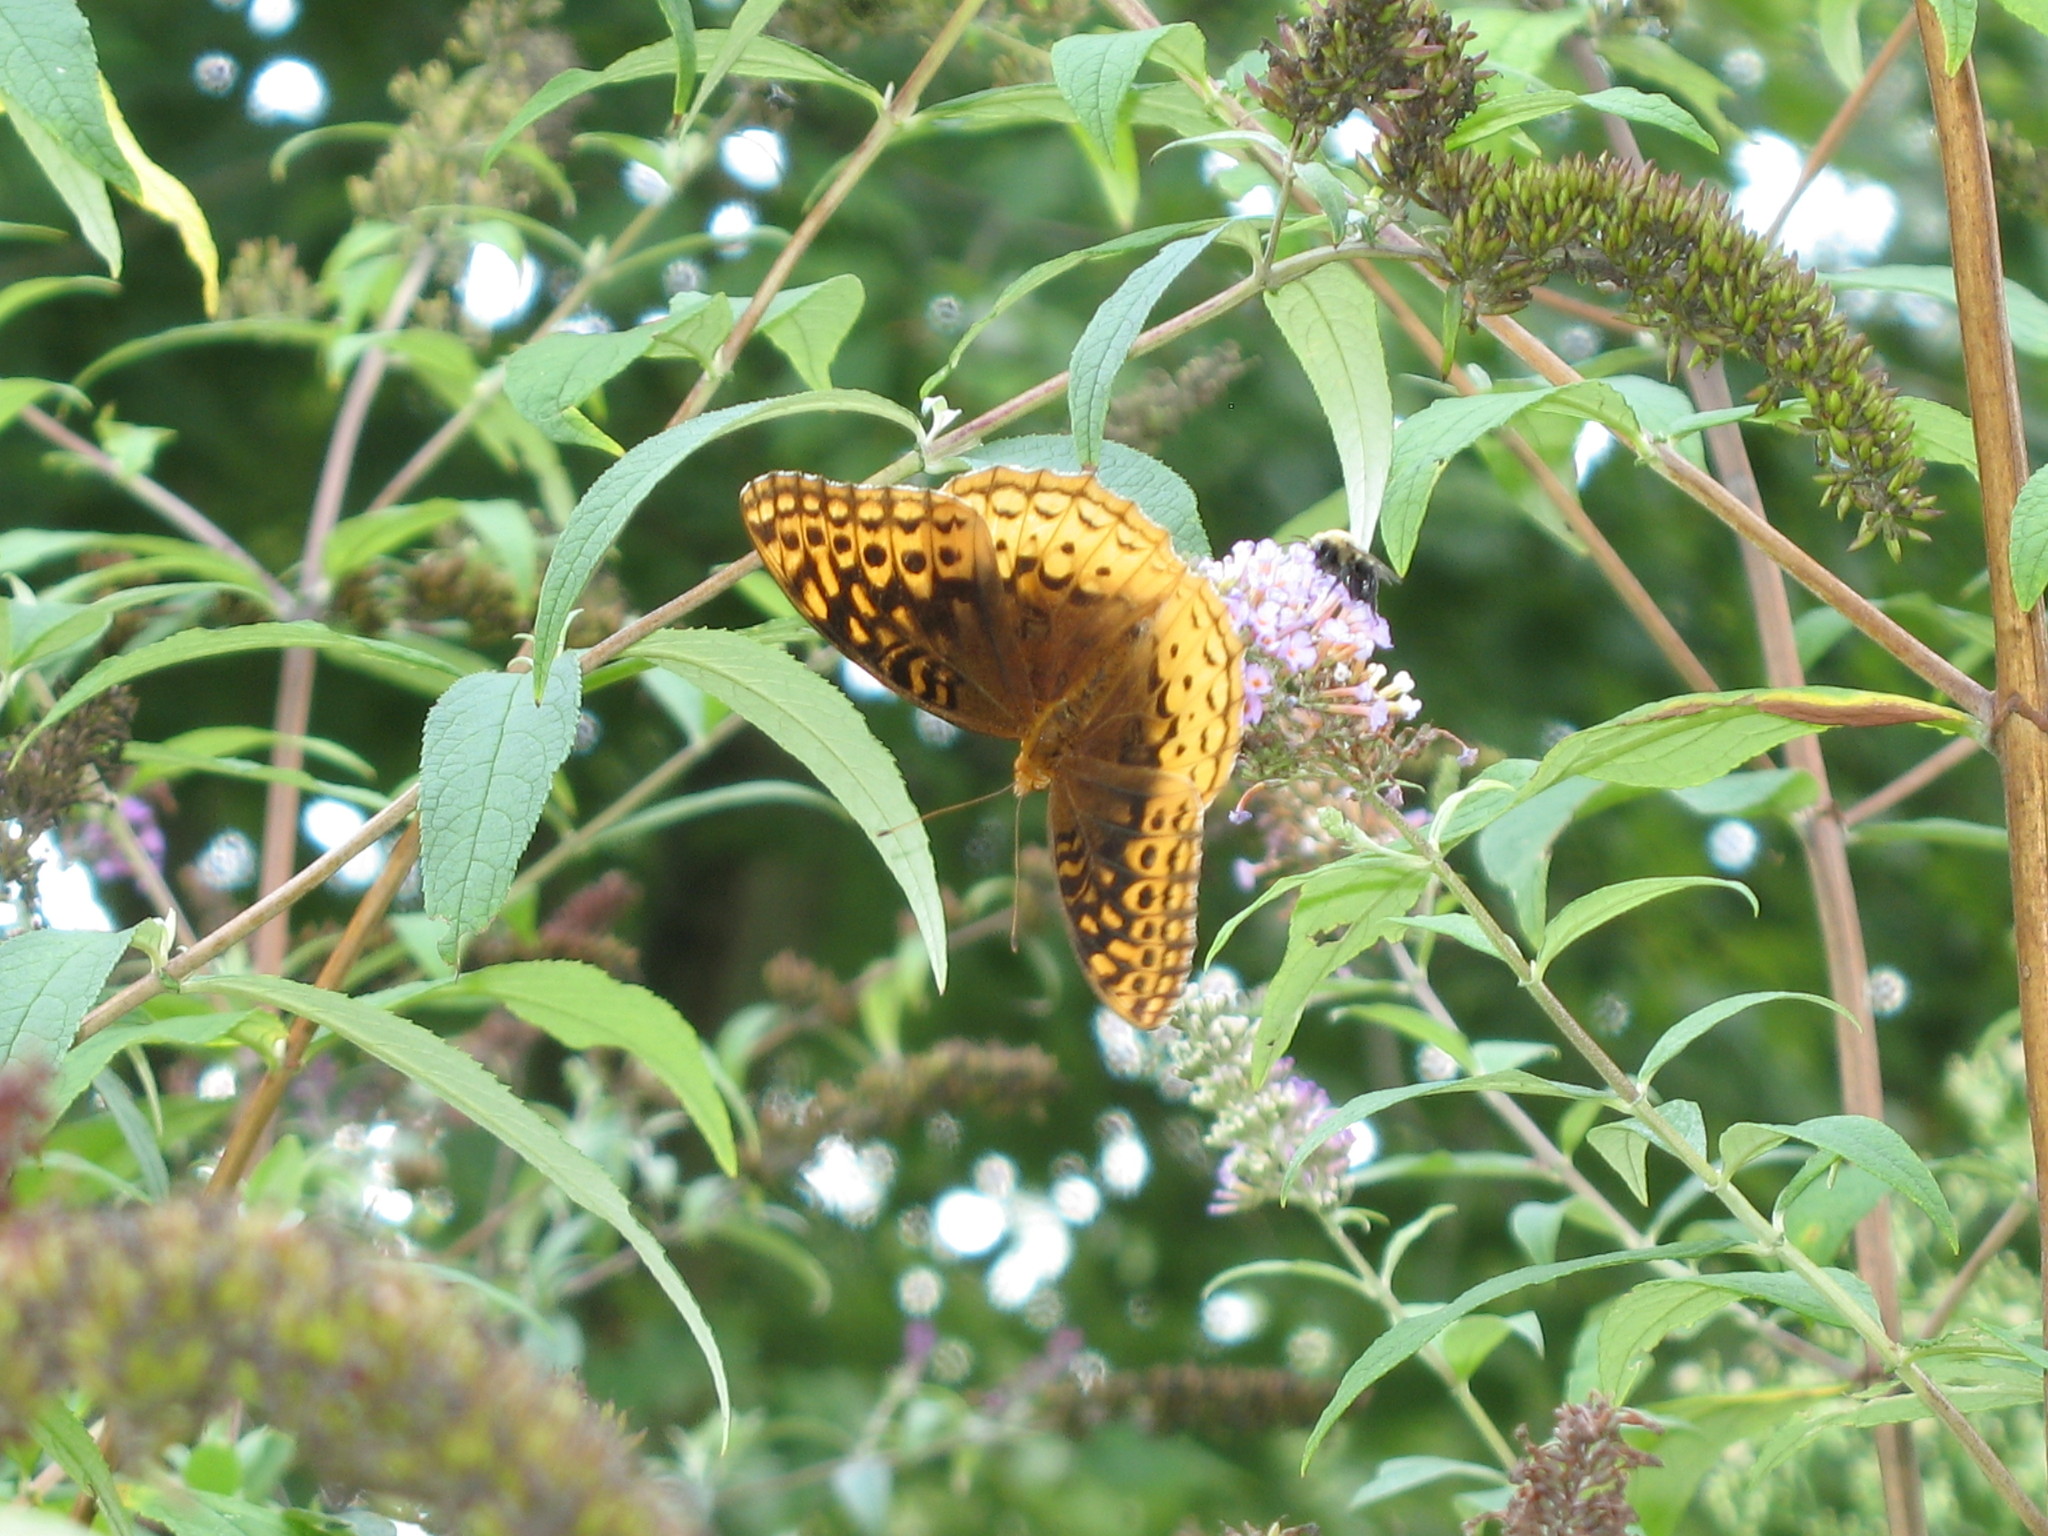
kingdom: Animalia
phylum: Arthropoda
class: Insecta
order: Lepidoptera
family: Nymphalidae
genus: Speyeria
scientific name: Speyeria cybele
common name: Great spangled fritillary
